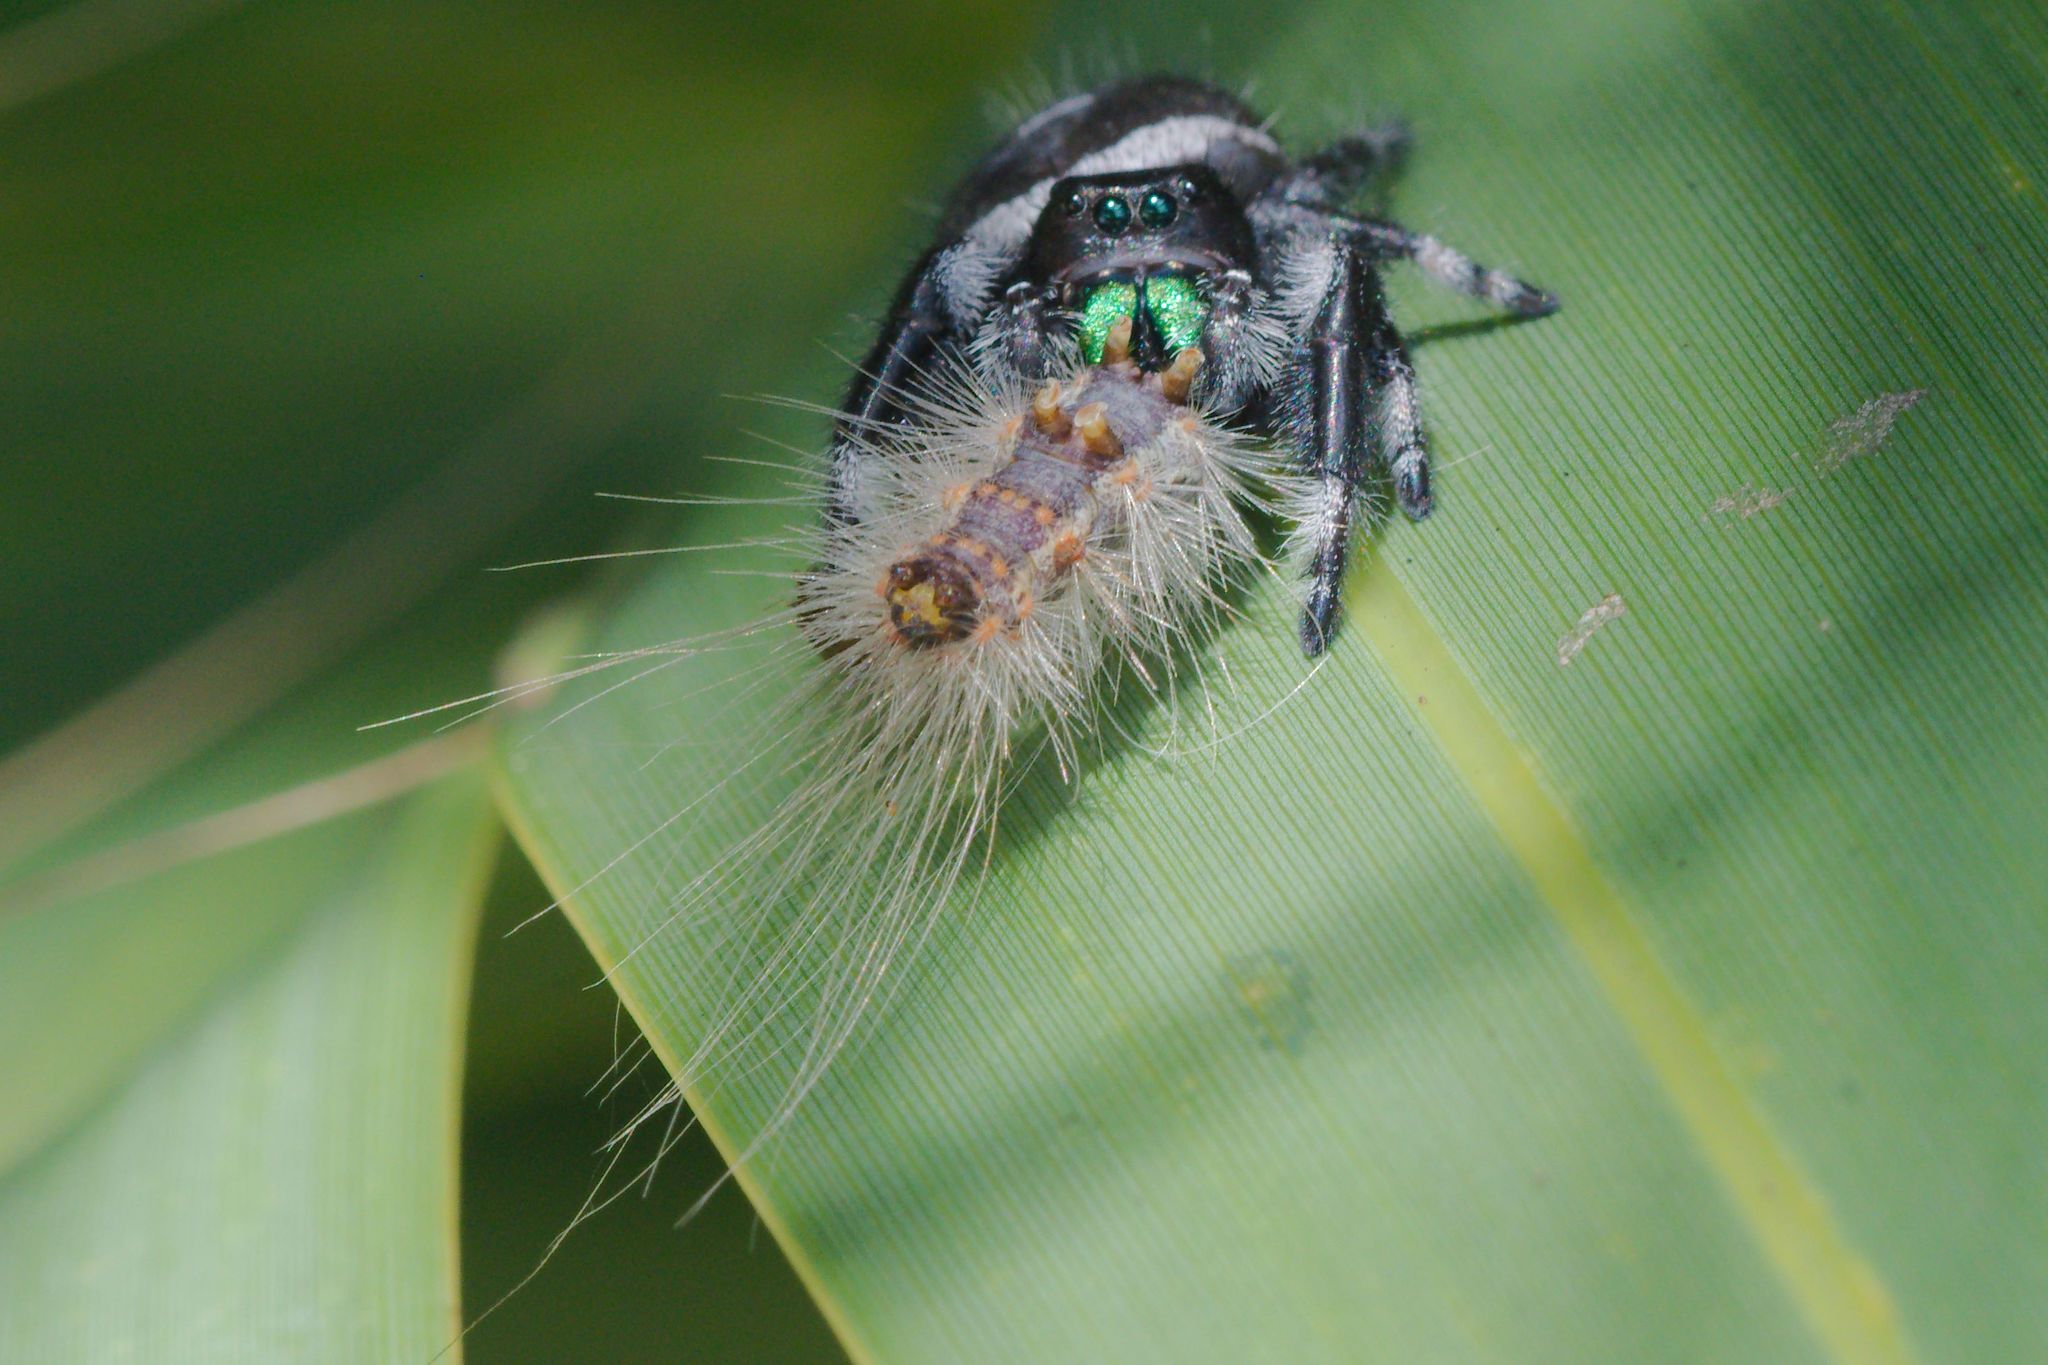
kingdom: Animalia
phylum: Arthropoda
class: Arachnida
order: Araneae
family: Salticidae
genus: Phidippus
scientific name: Phidippus regius
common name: Regal jumper
